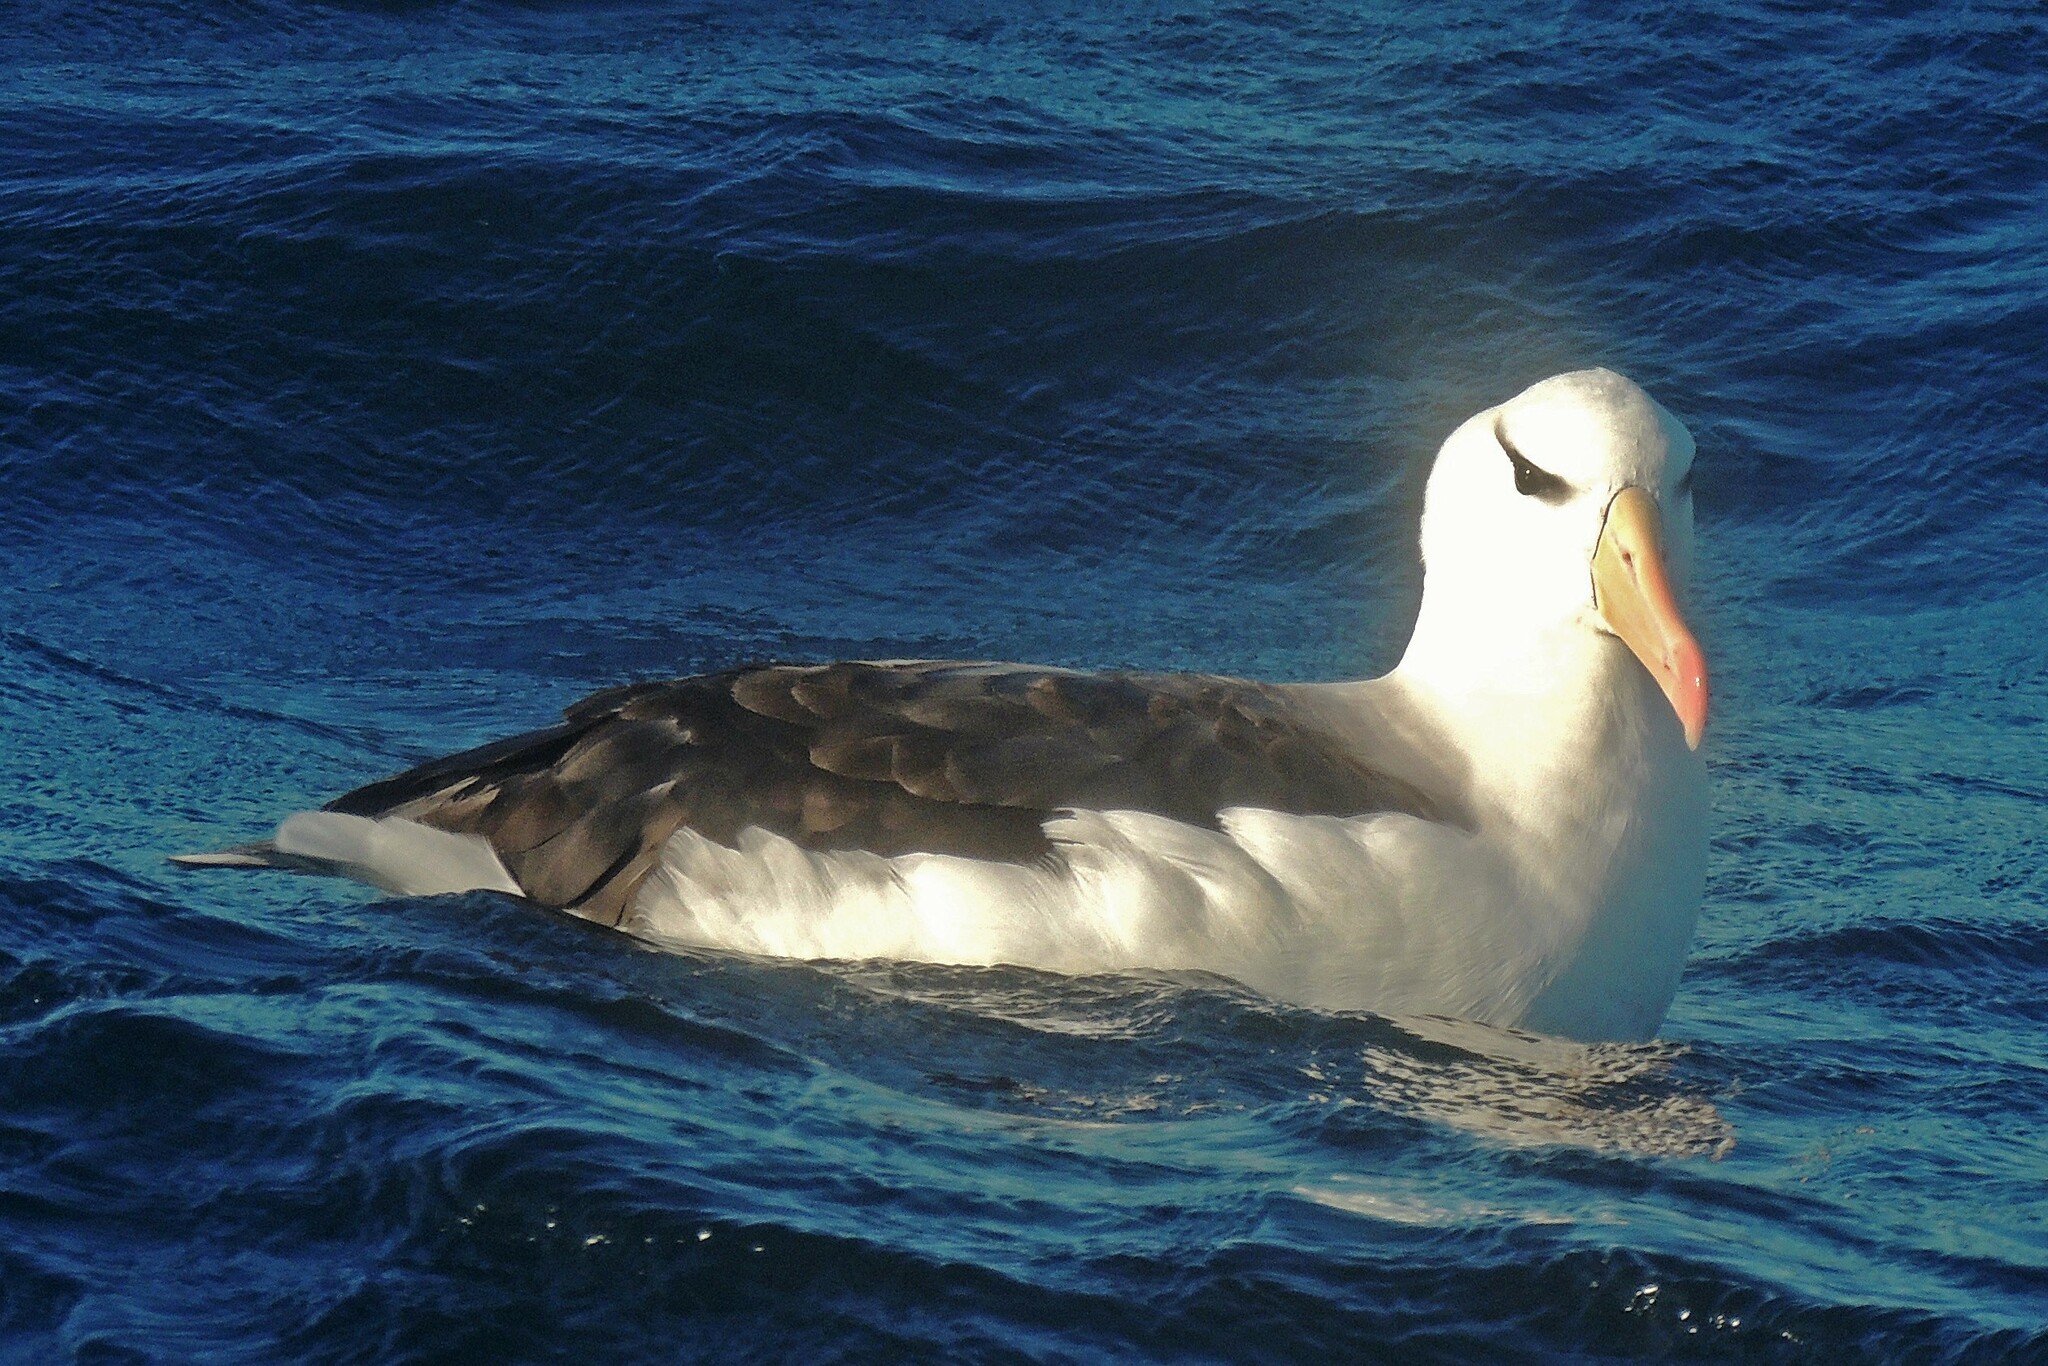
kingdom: Animalia
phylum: Chordata
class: Aves
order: Procellariiformes
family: Diomedeidae
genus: Thalassarche
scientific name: Thalassarche melanophris
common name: Black-browed albatross
